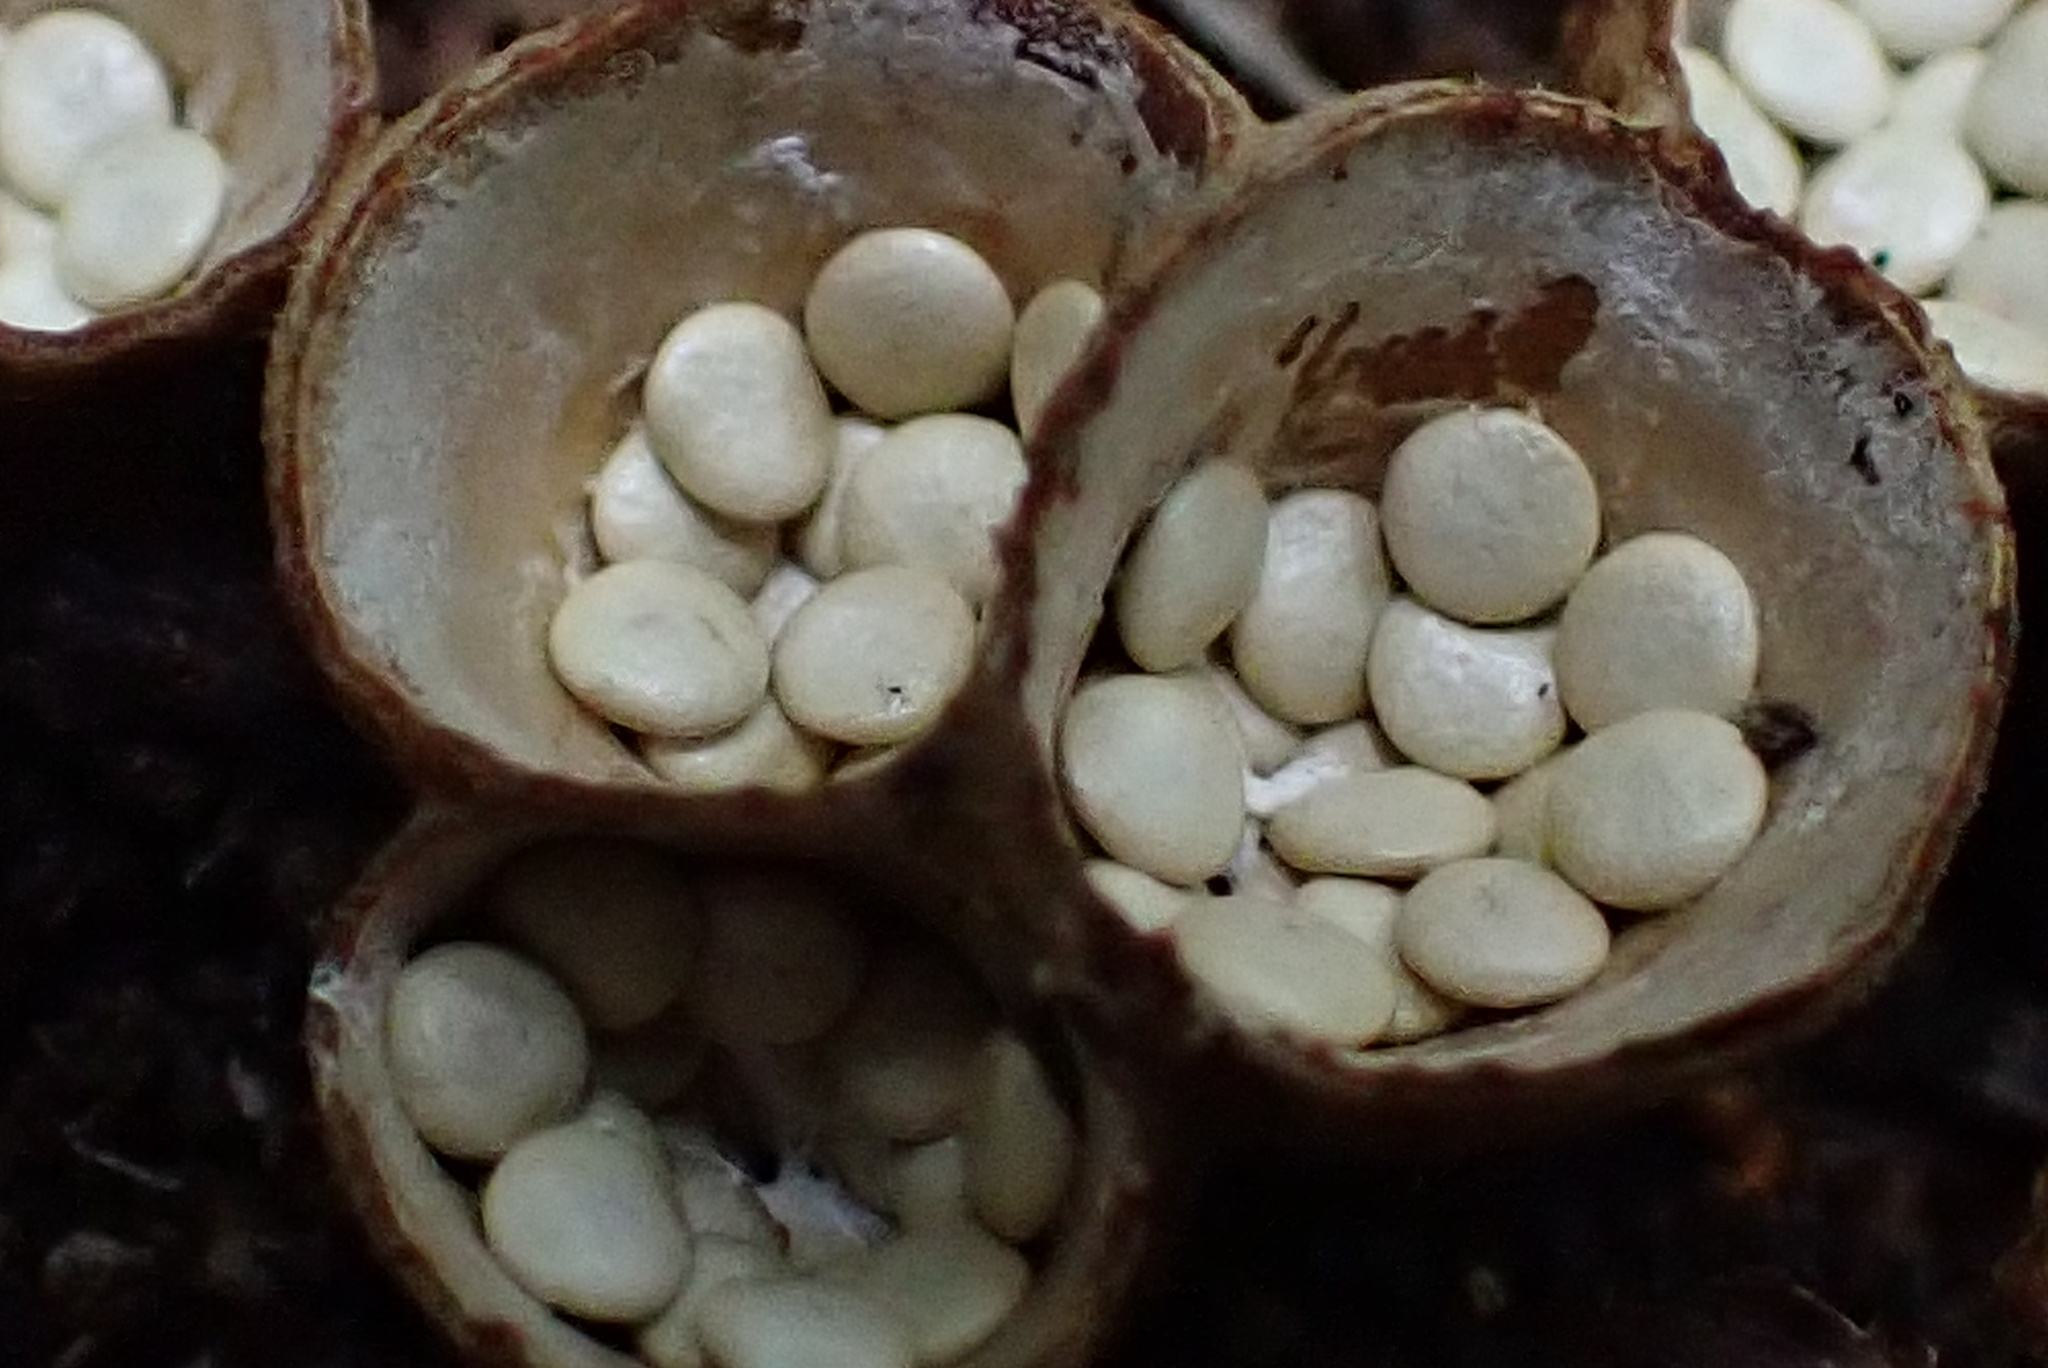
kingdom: Fungi
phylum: Basidiomycota
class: Agaricomycetes
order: Agaricales
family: Nidulariaceae
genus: Crucibulum
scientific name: Crucibulum laeve
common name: Common bird's nest
